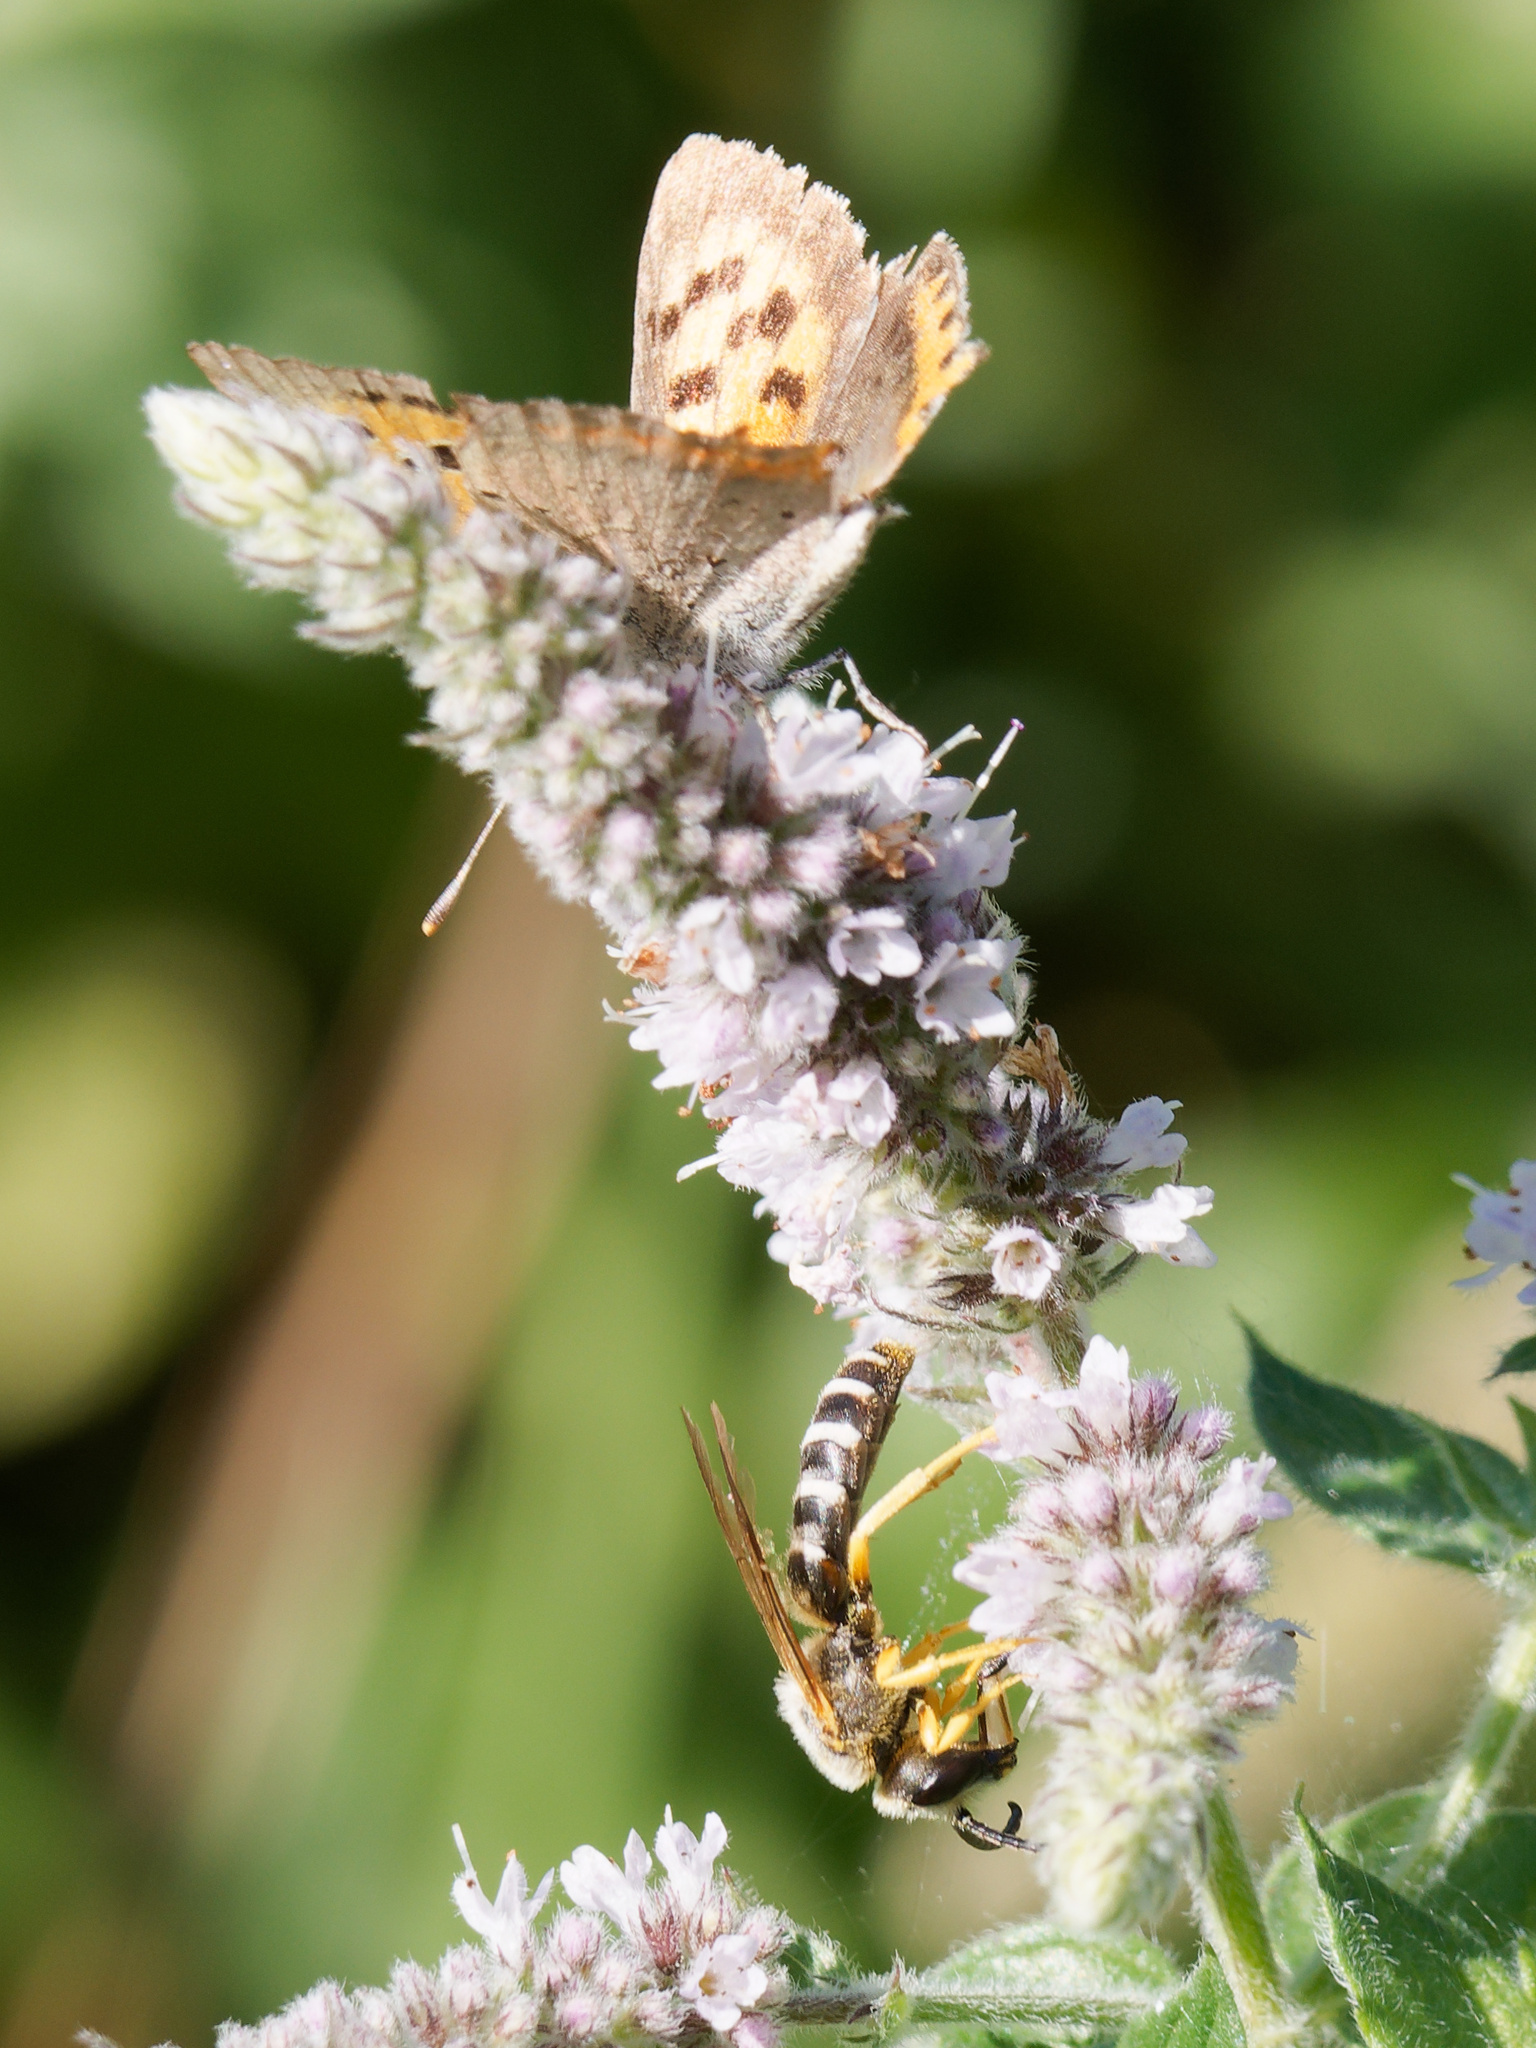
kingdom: Animalia
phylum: Arthropoda
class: Insecta
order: Lepidoptera
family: Lycaenidae
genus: Lycaena
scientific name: Lycaena phlaeas
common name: Small copper
